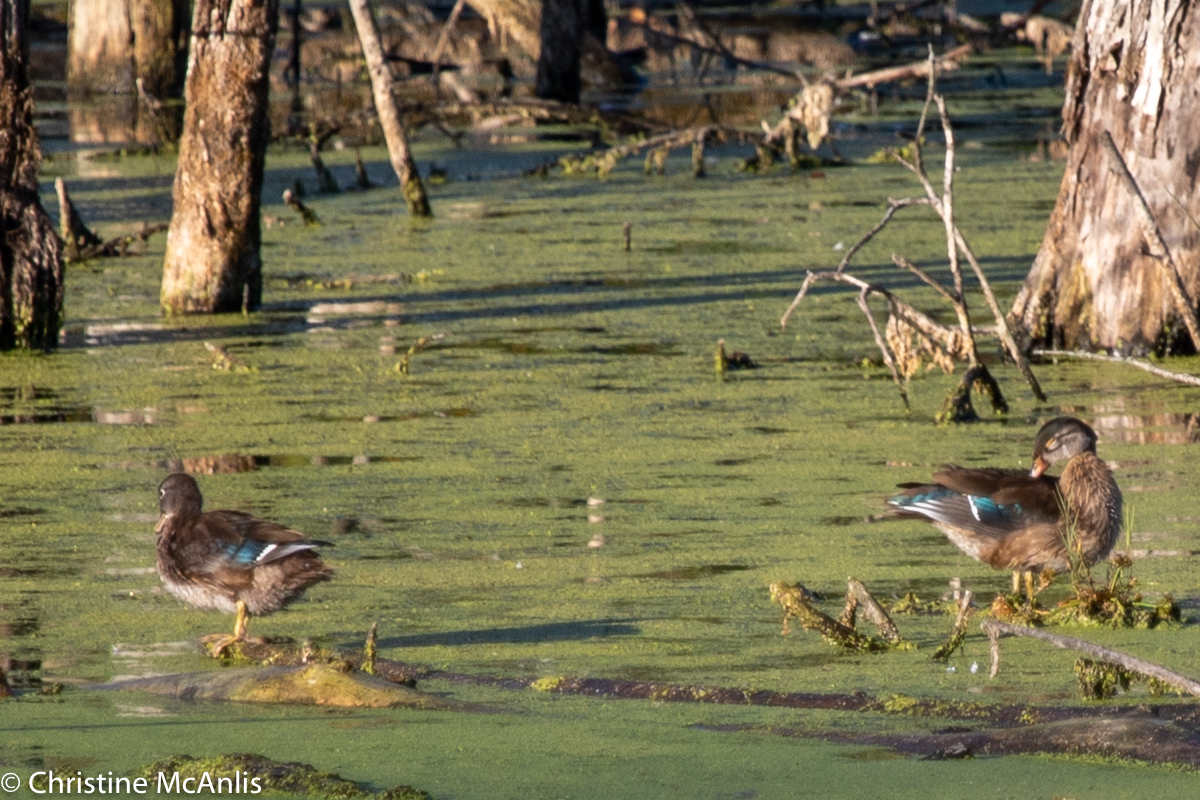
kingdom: Animalia
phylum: Chordata
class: Aves
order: Anseriformes
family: Anatidae
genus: Aix
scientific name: Aix sponsa
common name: Wood duck
